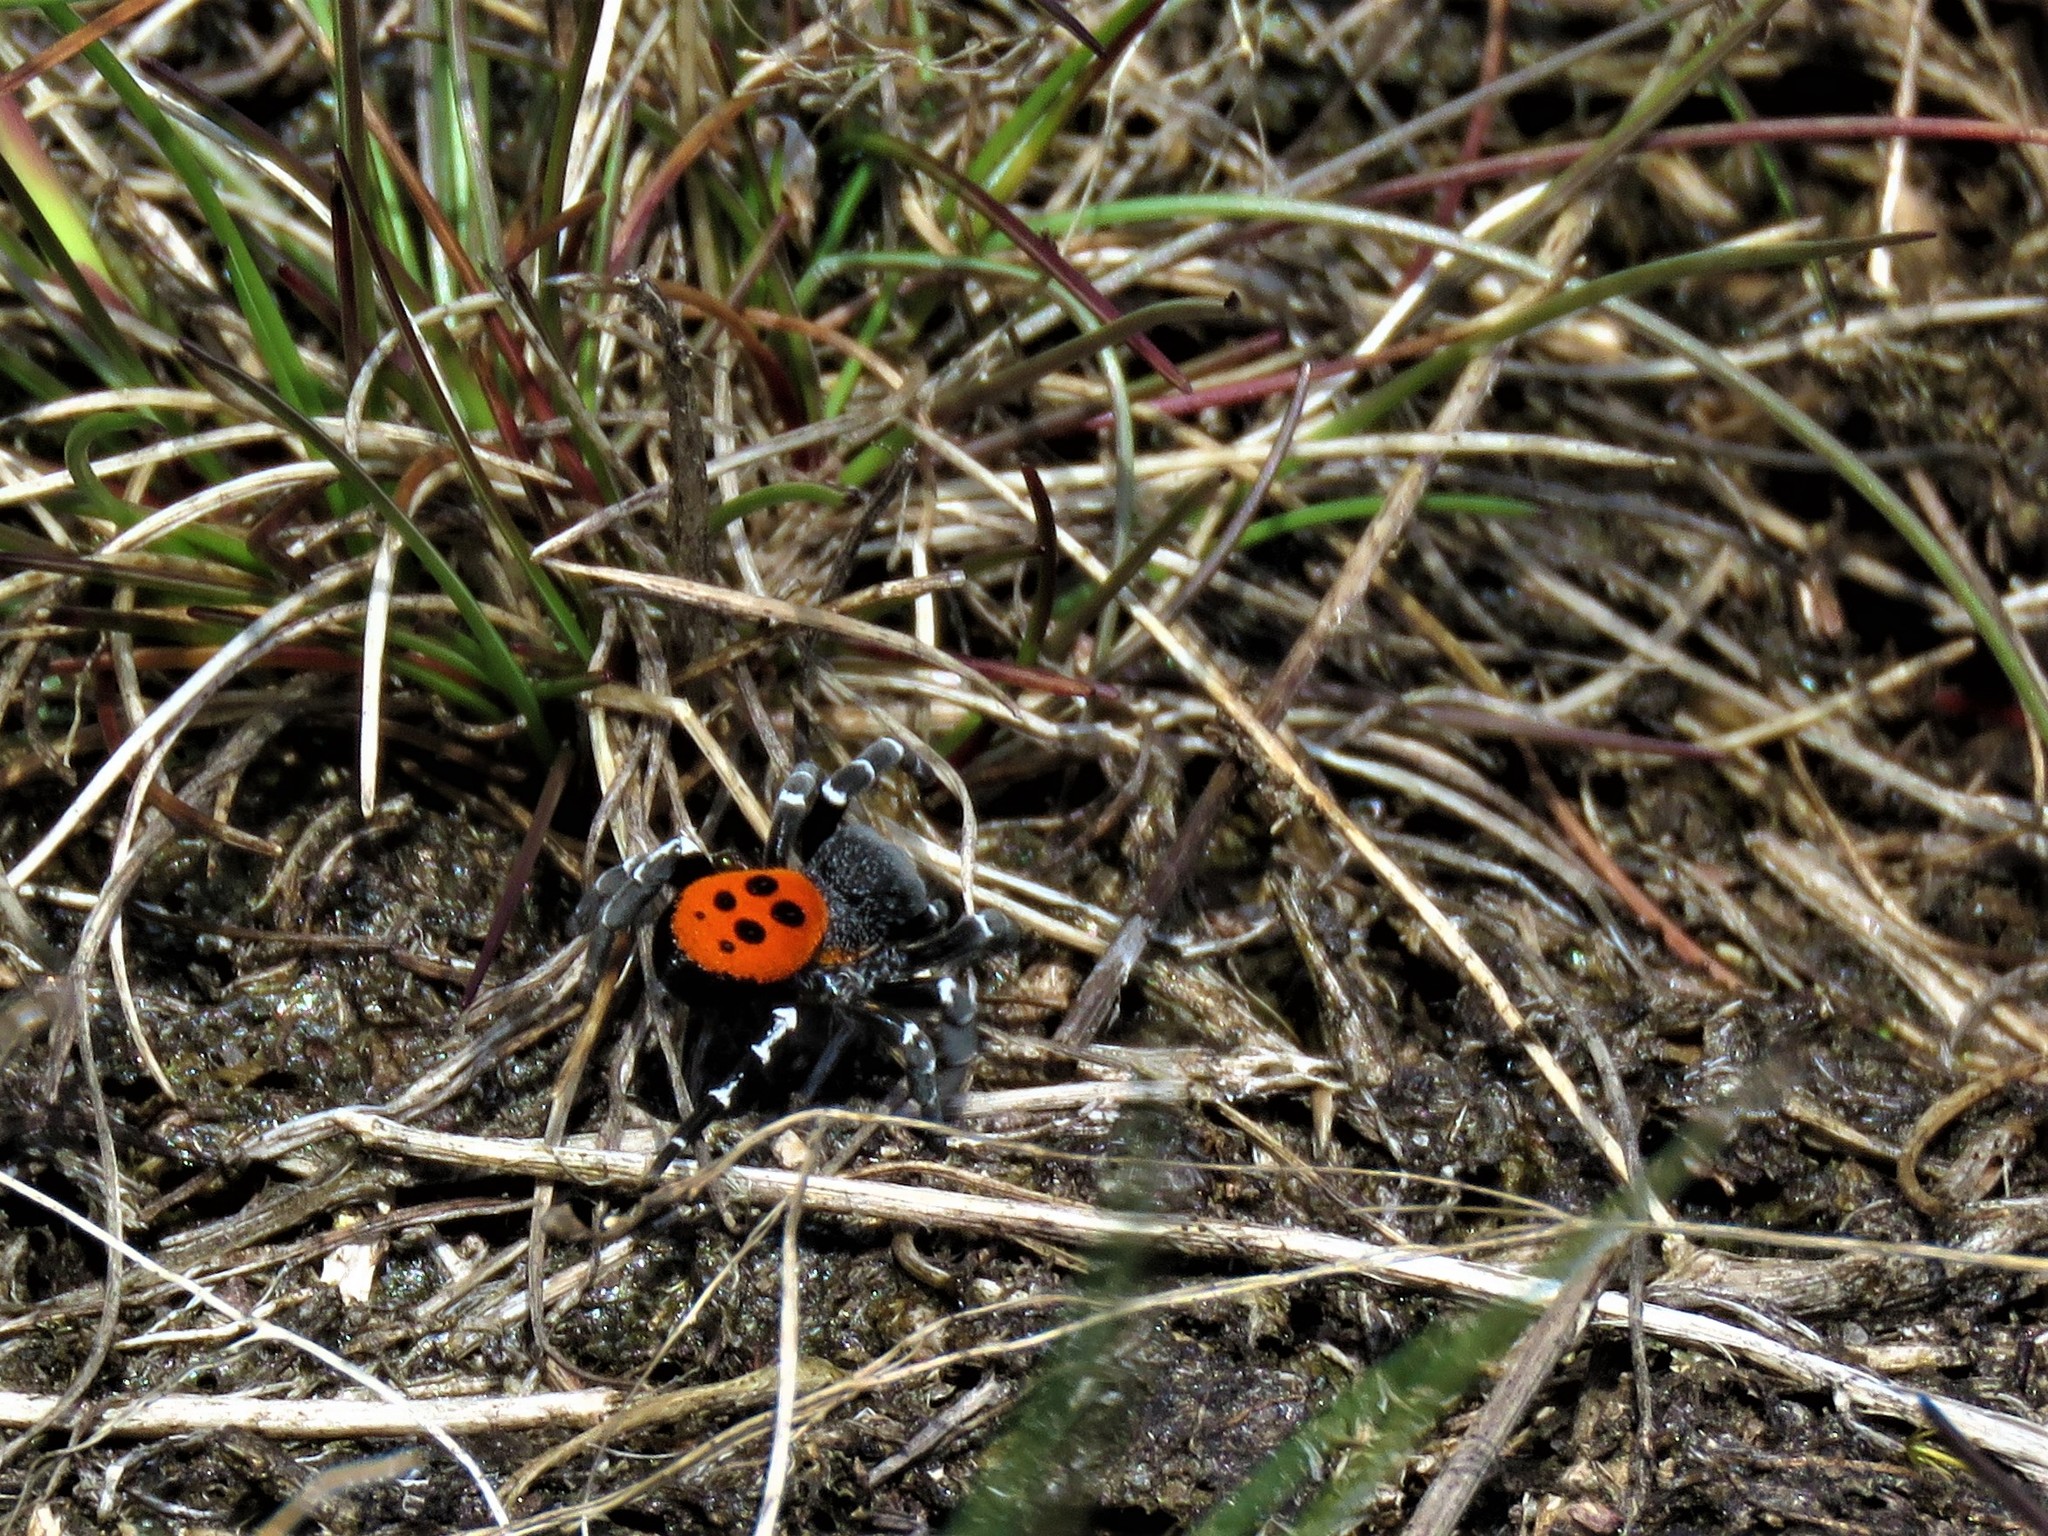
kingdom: Animalia
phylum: Arthropoda
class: Arachnida
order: Araneae
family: Eresidae
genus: Eresus
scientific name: Eresus sandaliatus
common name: Ladybird spider
